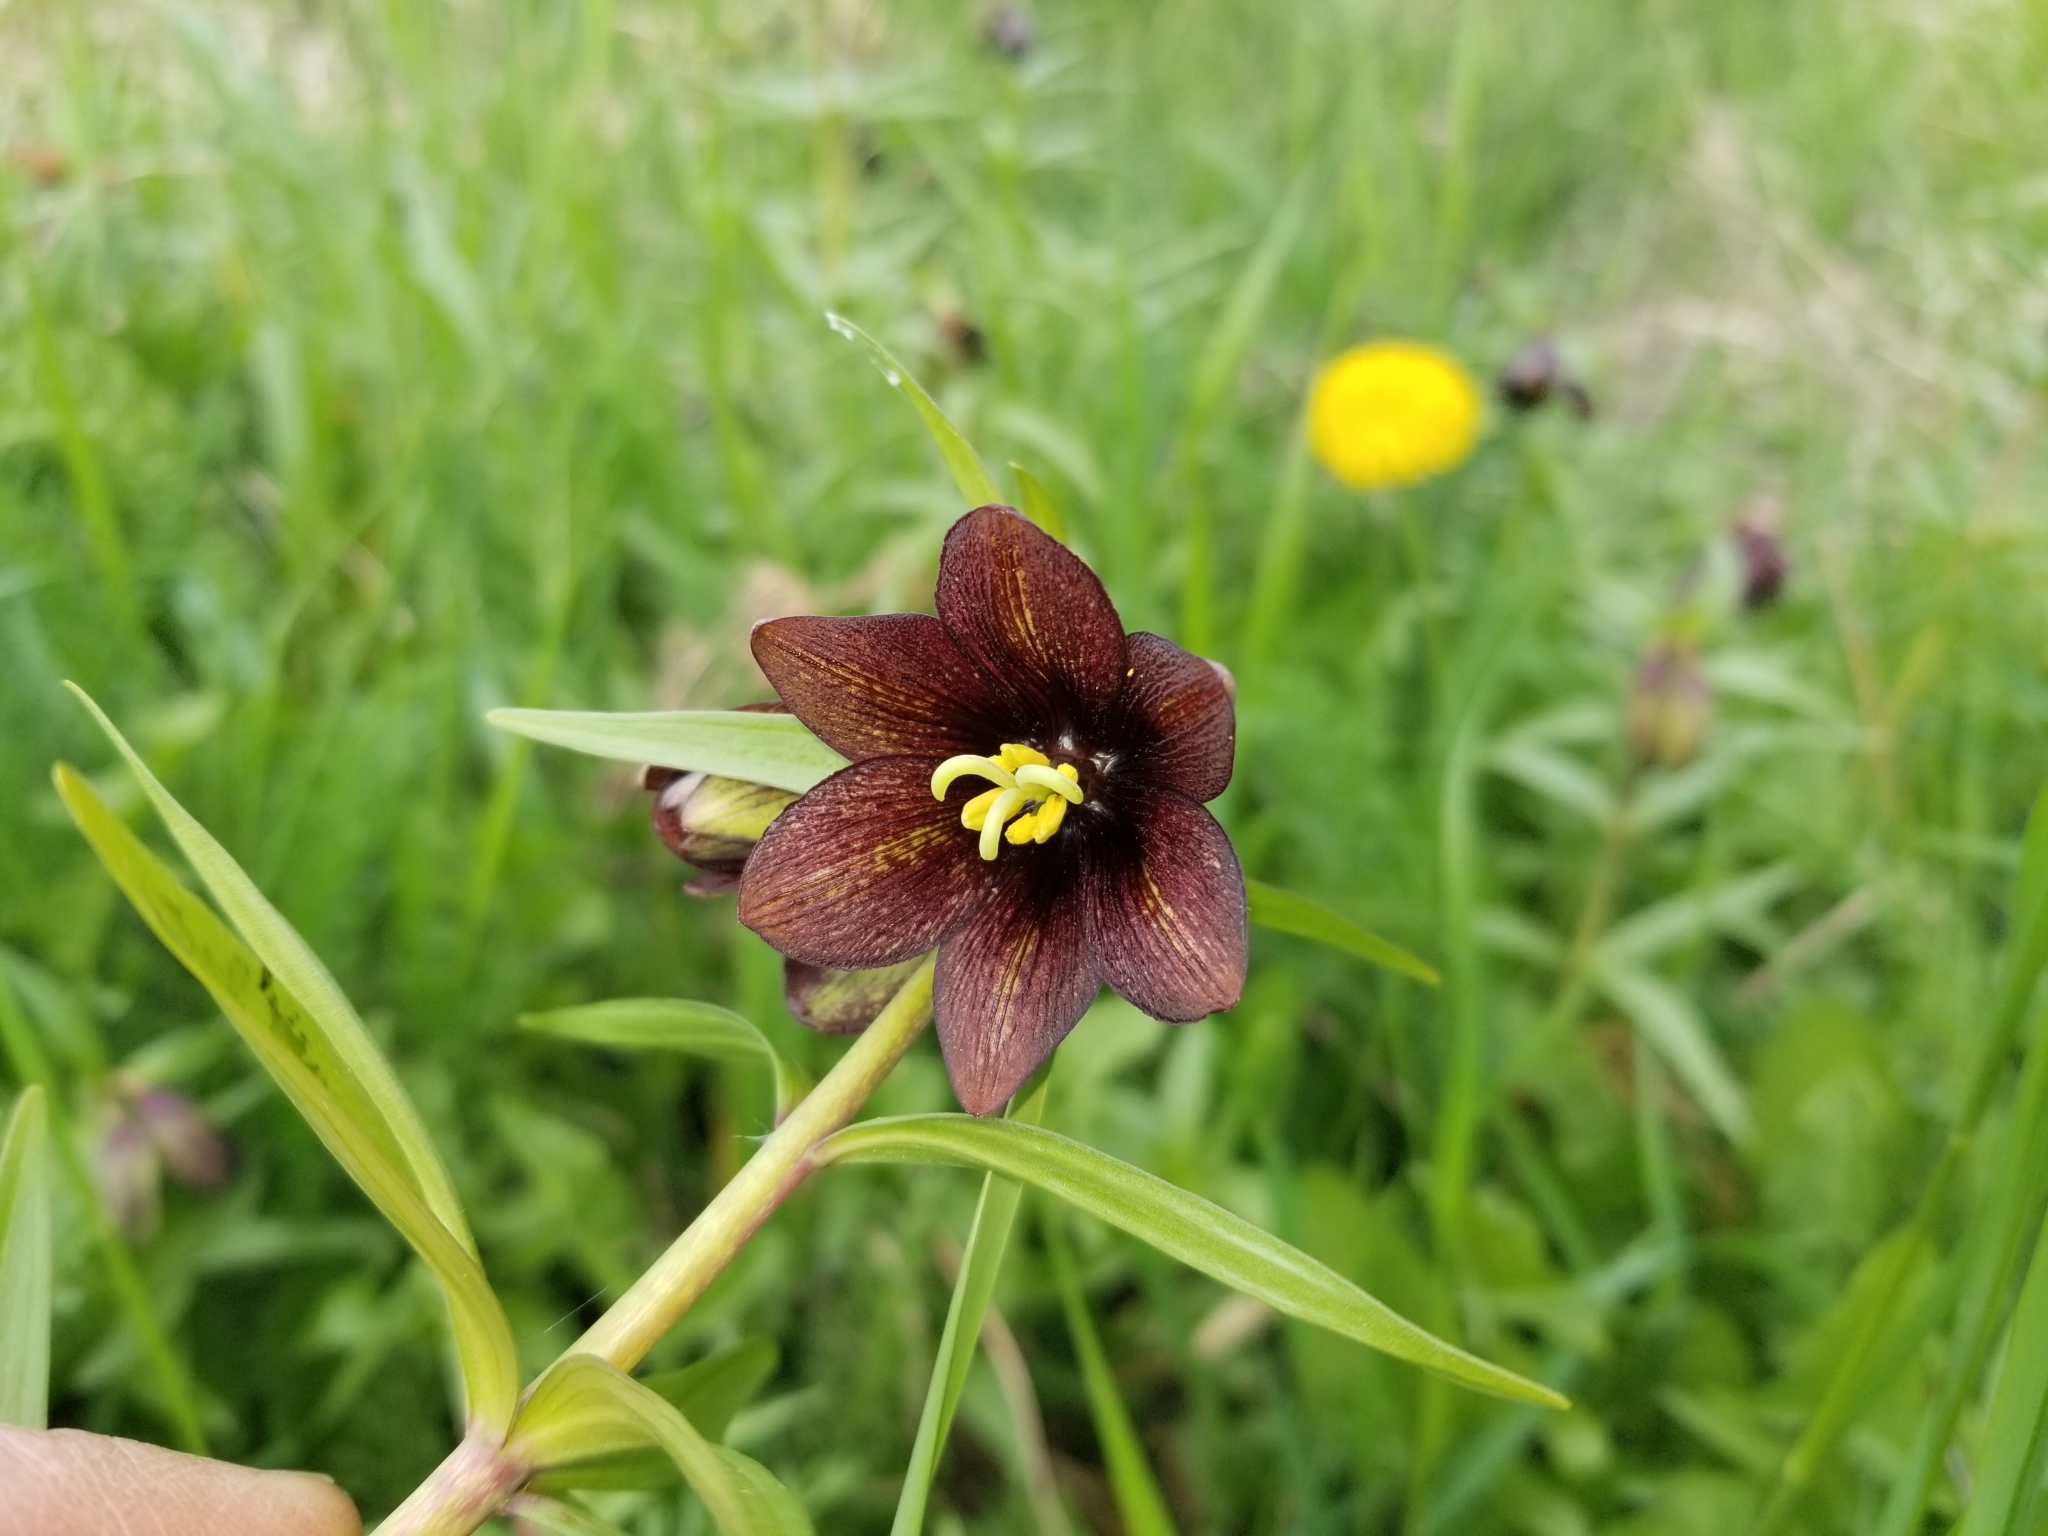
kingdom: Plantae
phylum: Tracheophyta
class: Liliopsida
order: Liliales
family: Liliaceae
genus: Fritillaria
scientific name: Fritillaria camschatcensis
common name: Kamchatka fritillary
